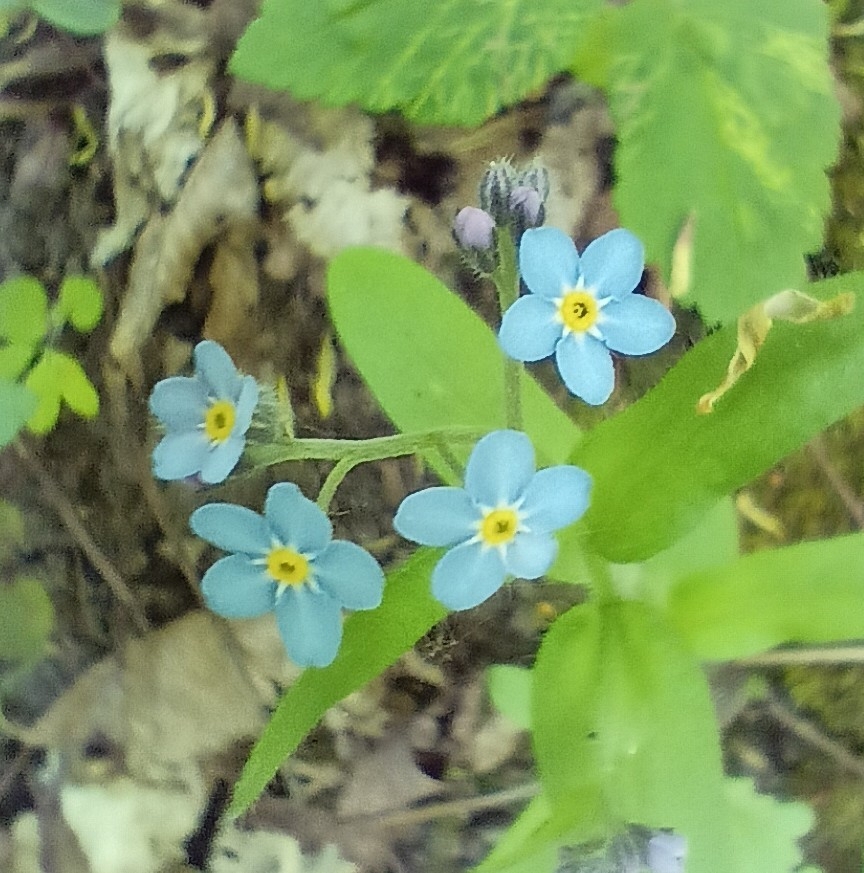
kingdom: Plantae
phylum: Tracheophyta
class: Magnoliopsida
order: Boraginales
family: Boraginaceae
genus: Myosotis
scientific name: Myosotis sylvatica
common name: Wood forget-me-not
